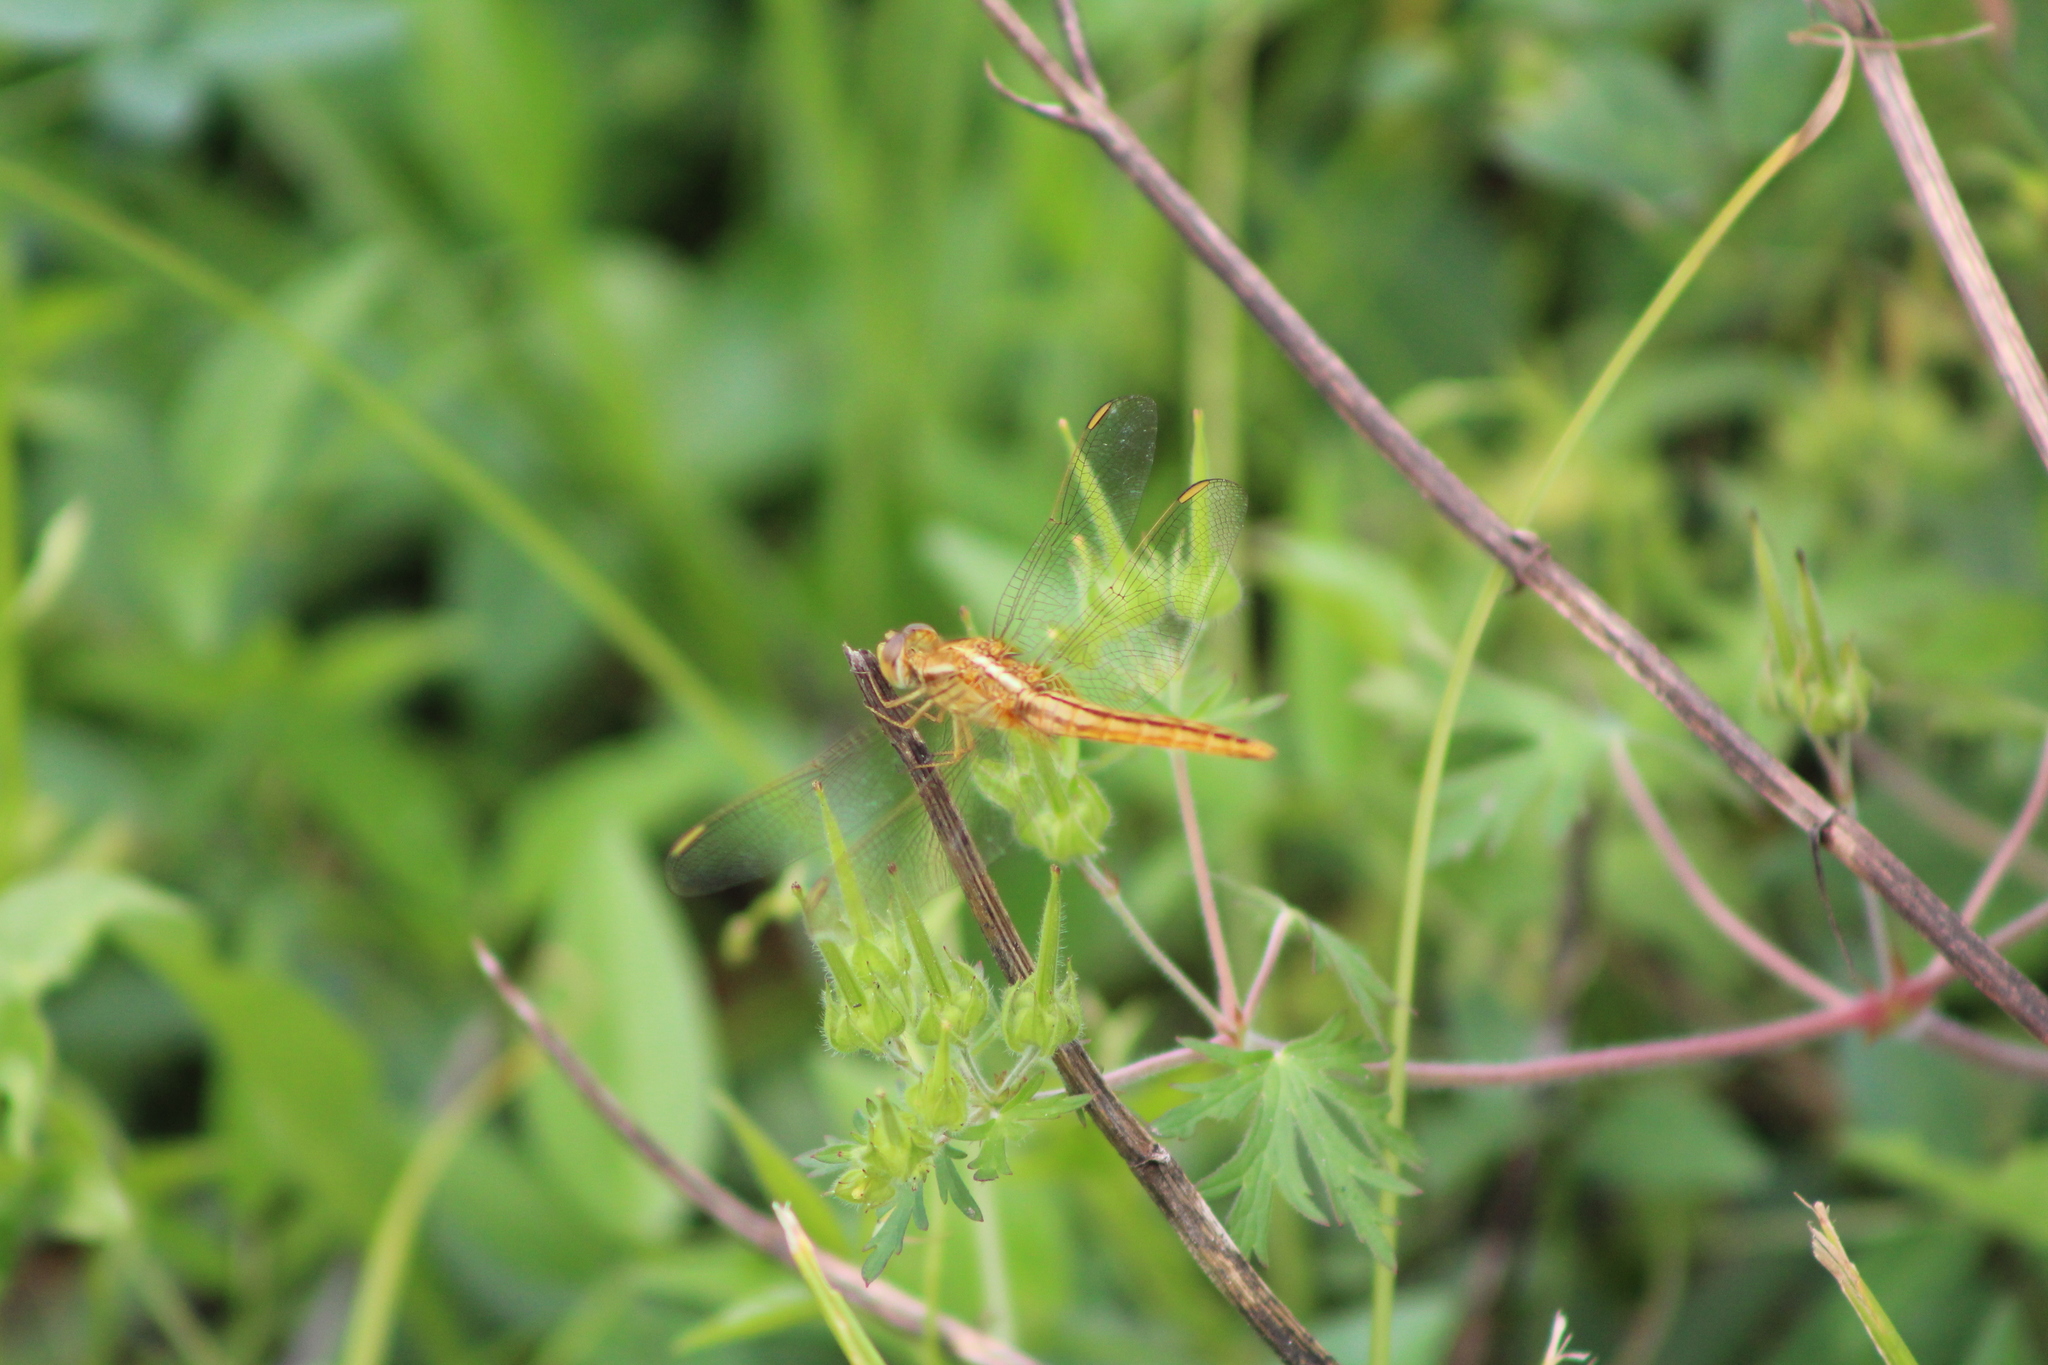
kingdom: Animalia
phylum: Arthropoda
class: Insecta
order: Odonata
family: Libellulidae
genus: Crocothemis
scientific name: Crocothemis servilia
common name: Scarlet skimmer
